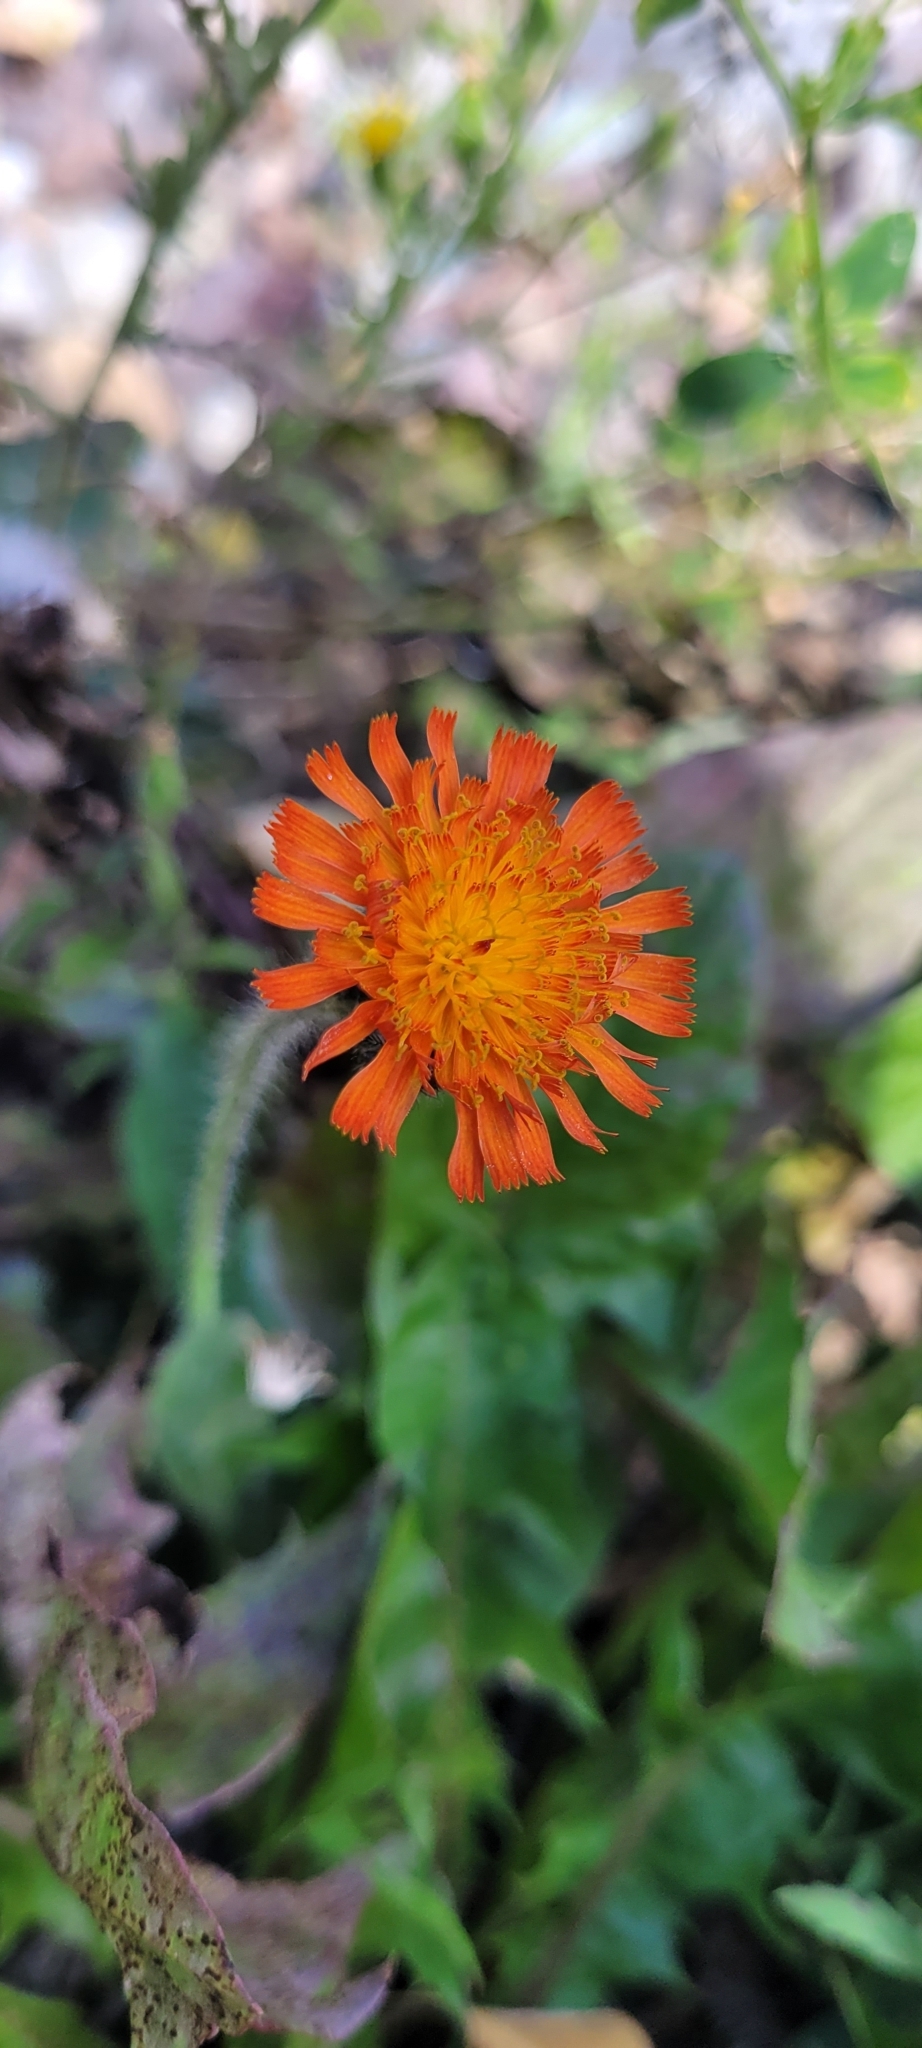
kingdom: Plantae
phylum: Tracheophyta
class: Magnoliopsida
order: Asterales
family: Asteraceae
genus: Pilosella
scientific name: Pilosella aurantiaca
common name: Fox-and-cubs
